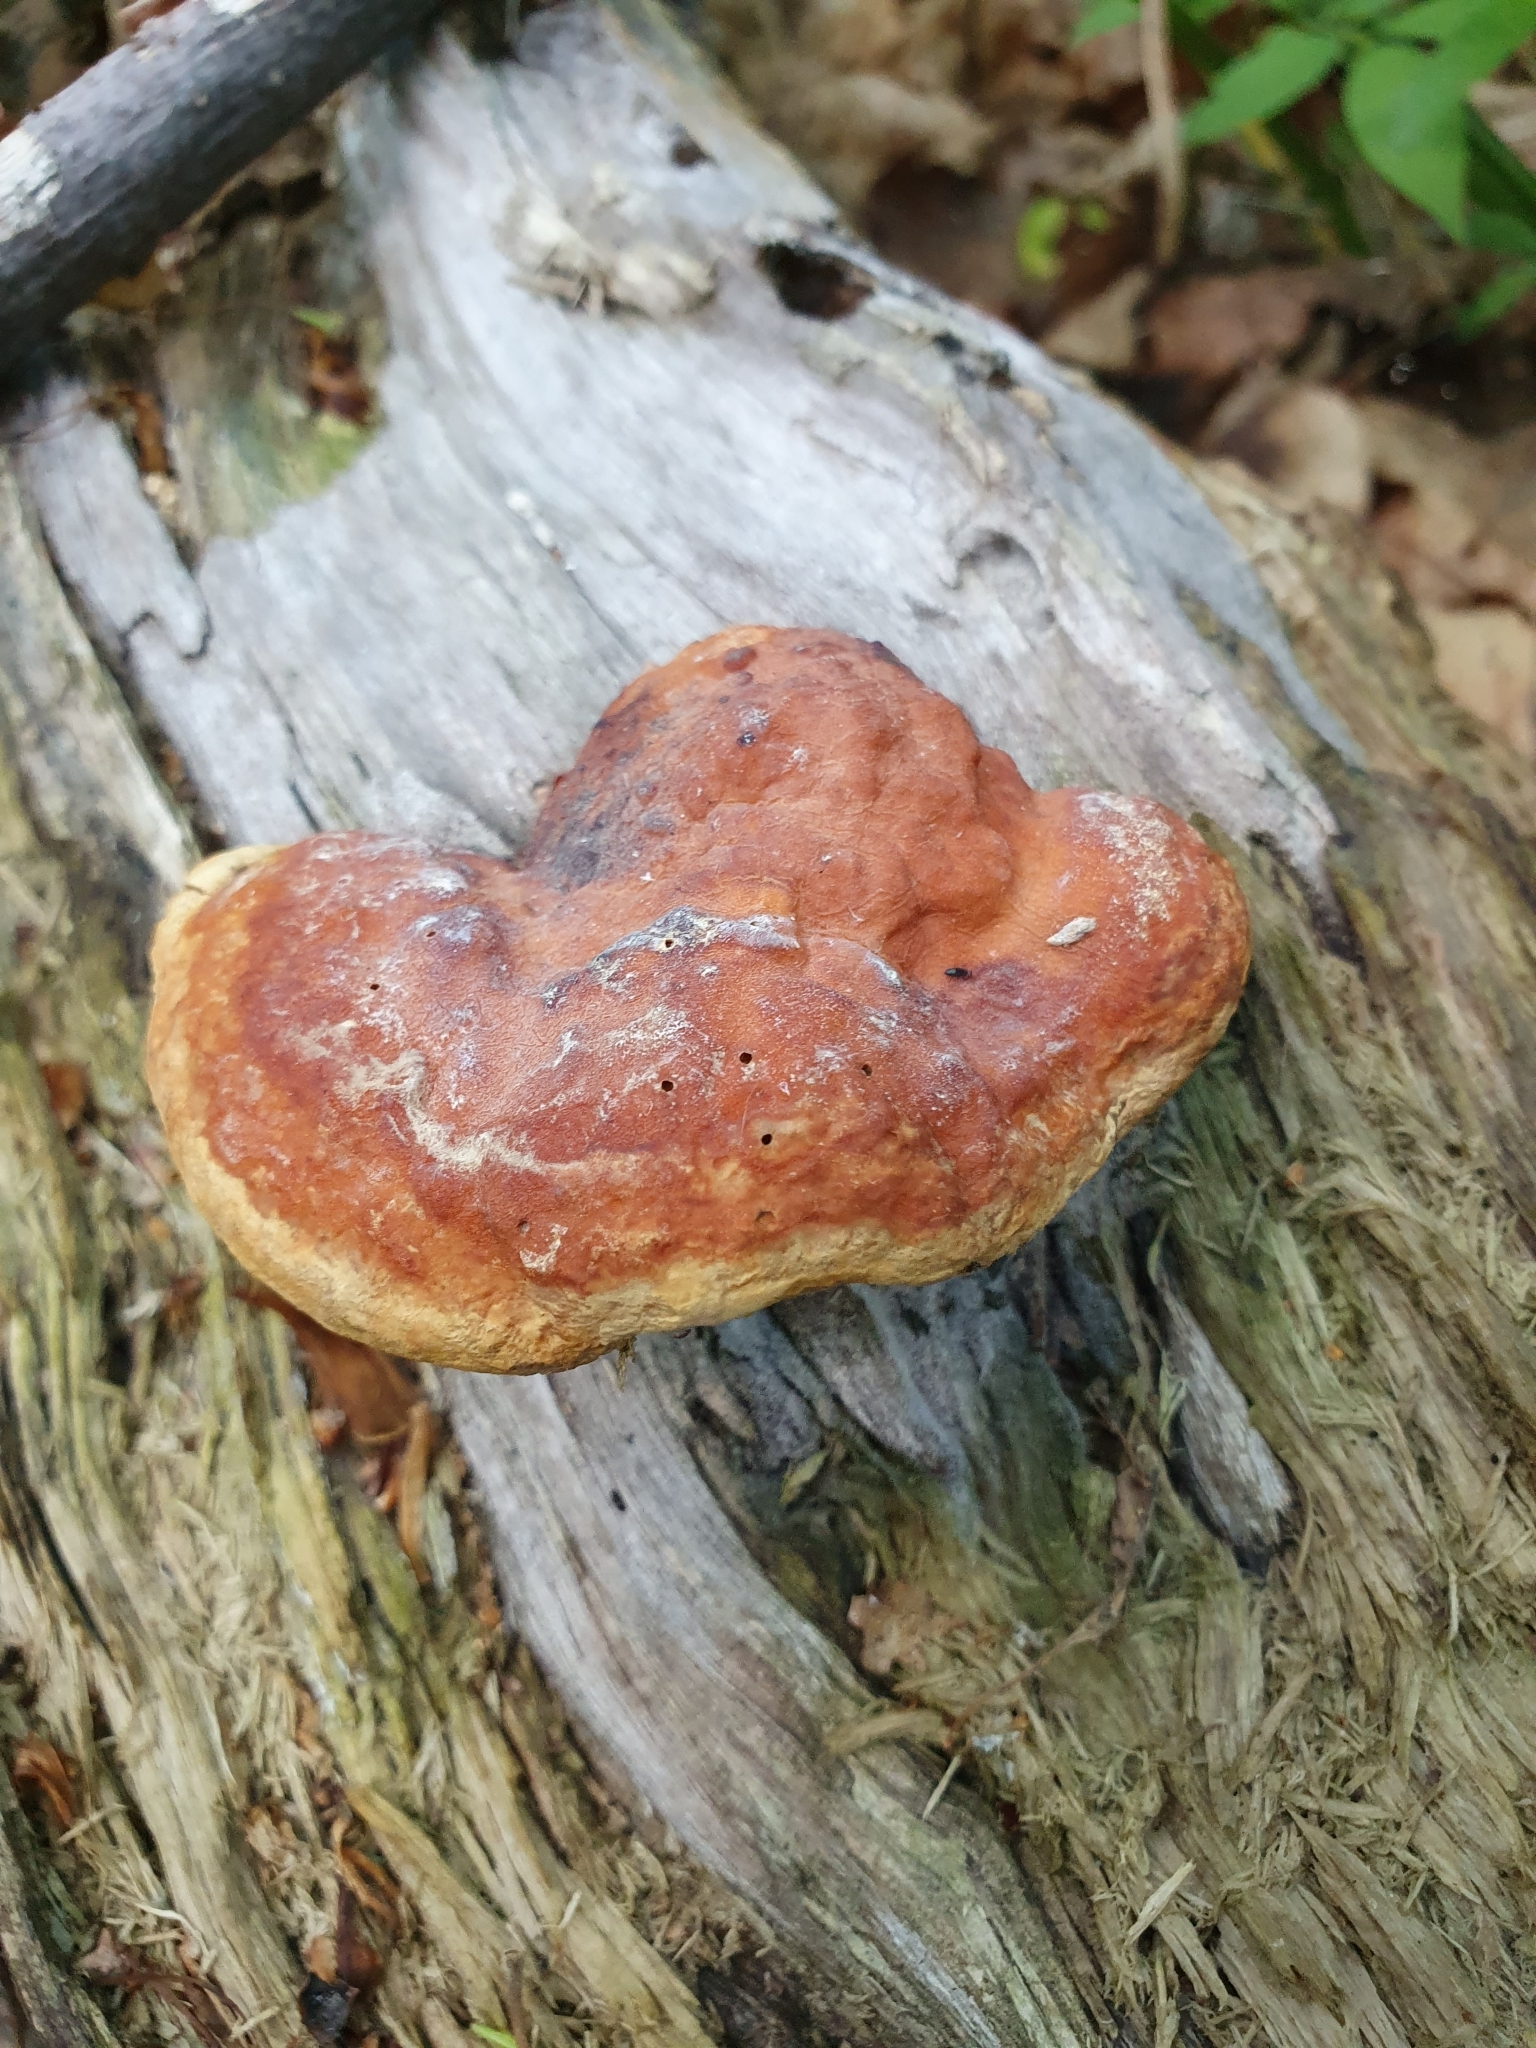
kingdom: Fungi
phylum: Basidiomycota
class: Agaricomycetes
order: Polyporales
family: Fomitopsidaceae
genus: Fomitopsis
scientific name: Fomitopsis pinicola
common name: Red-belted bracket
